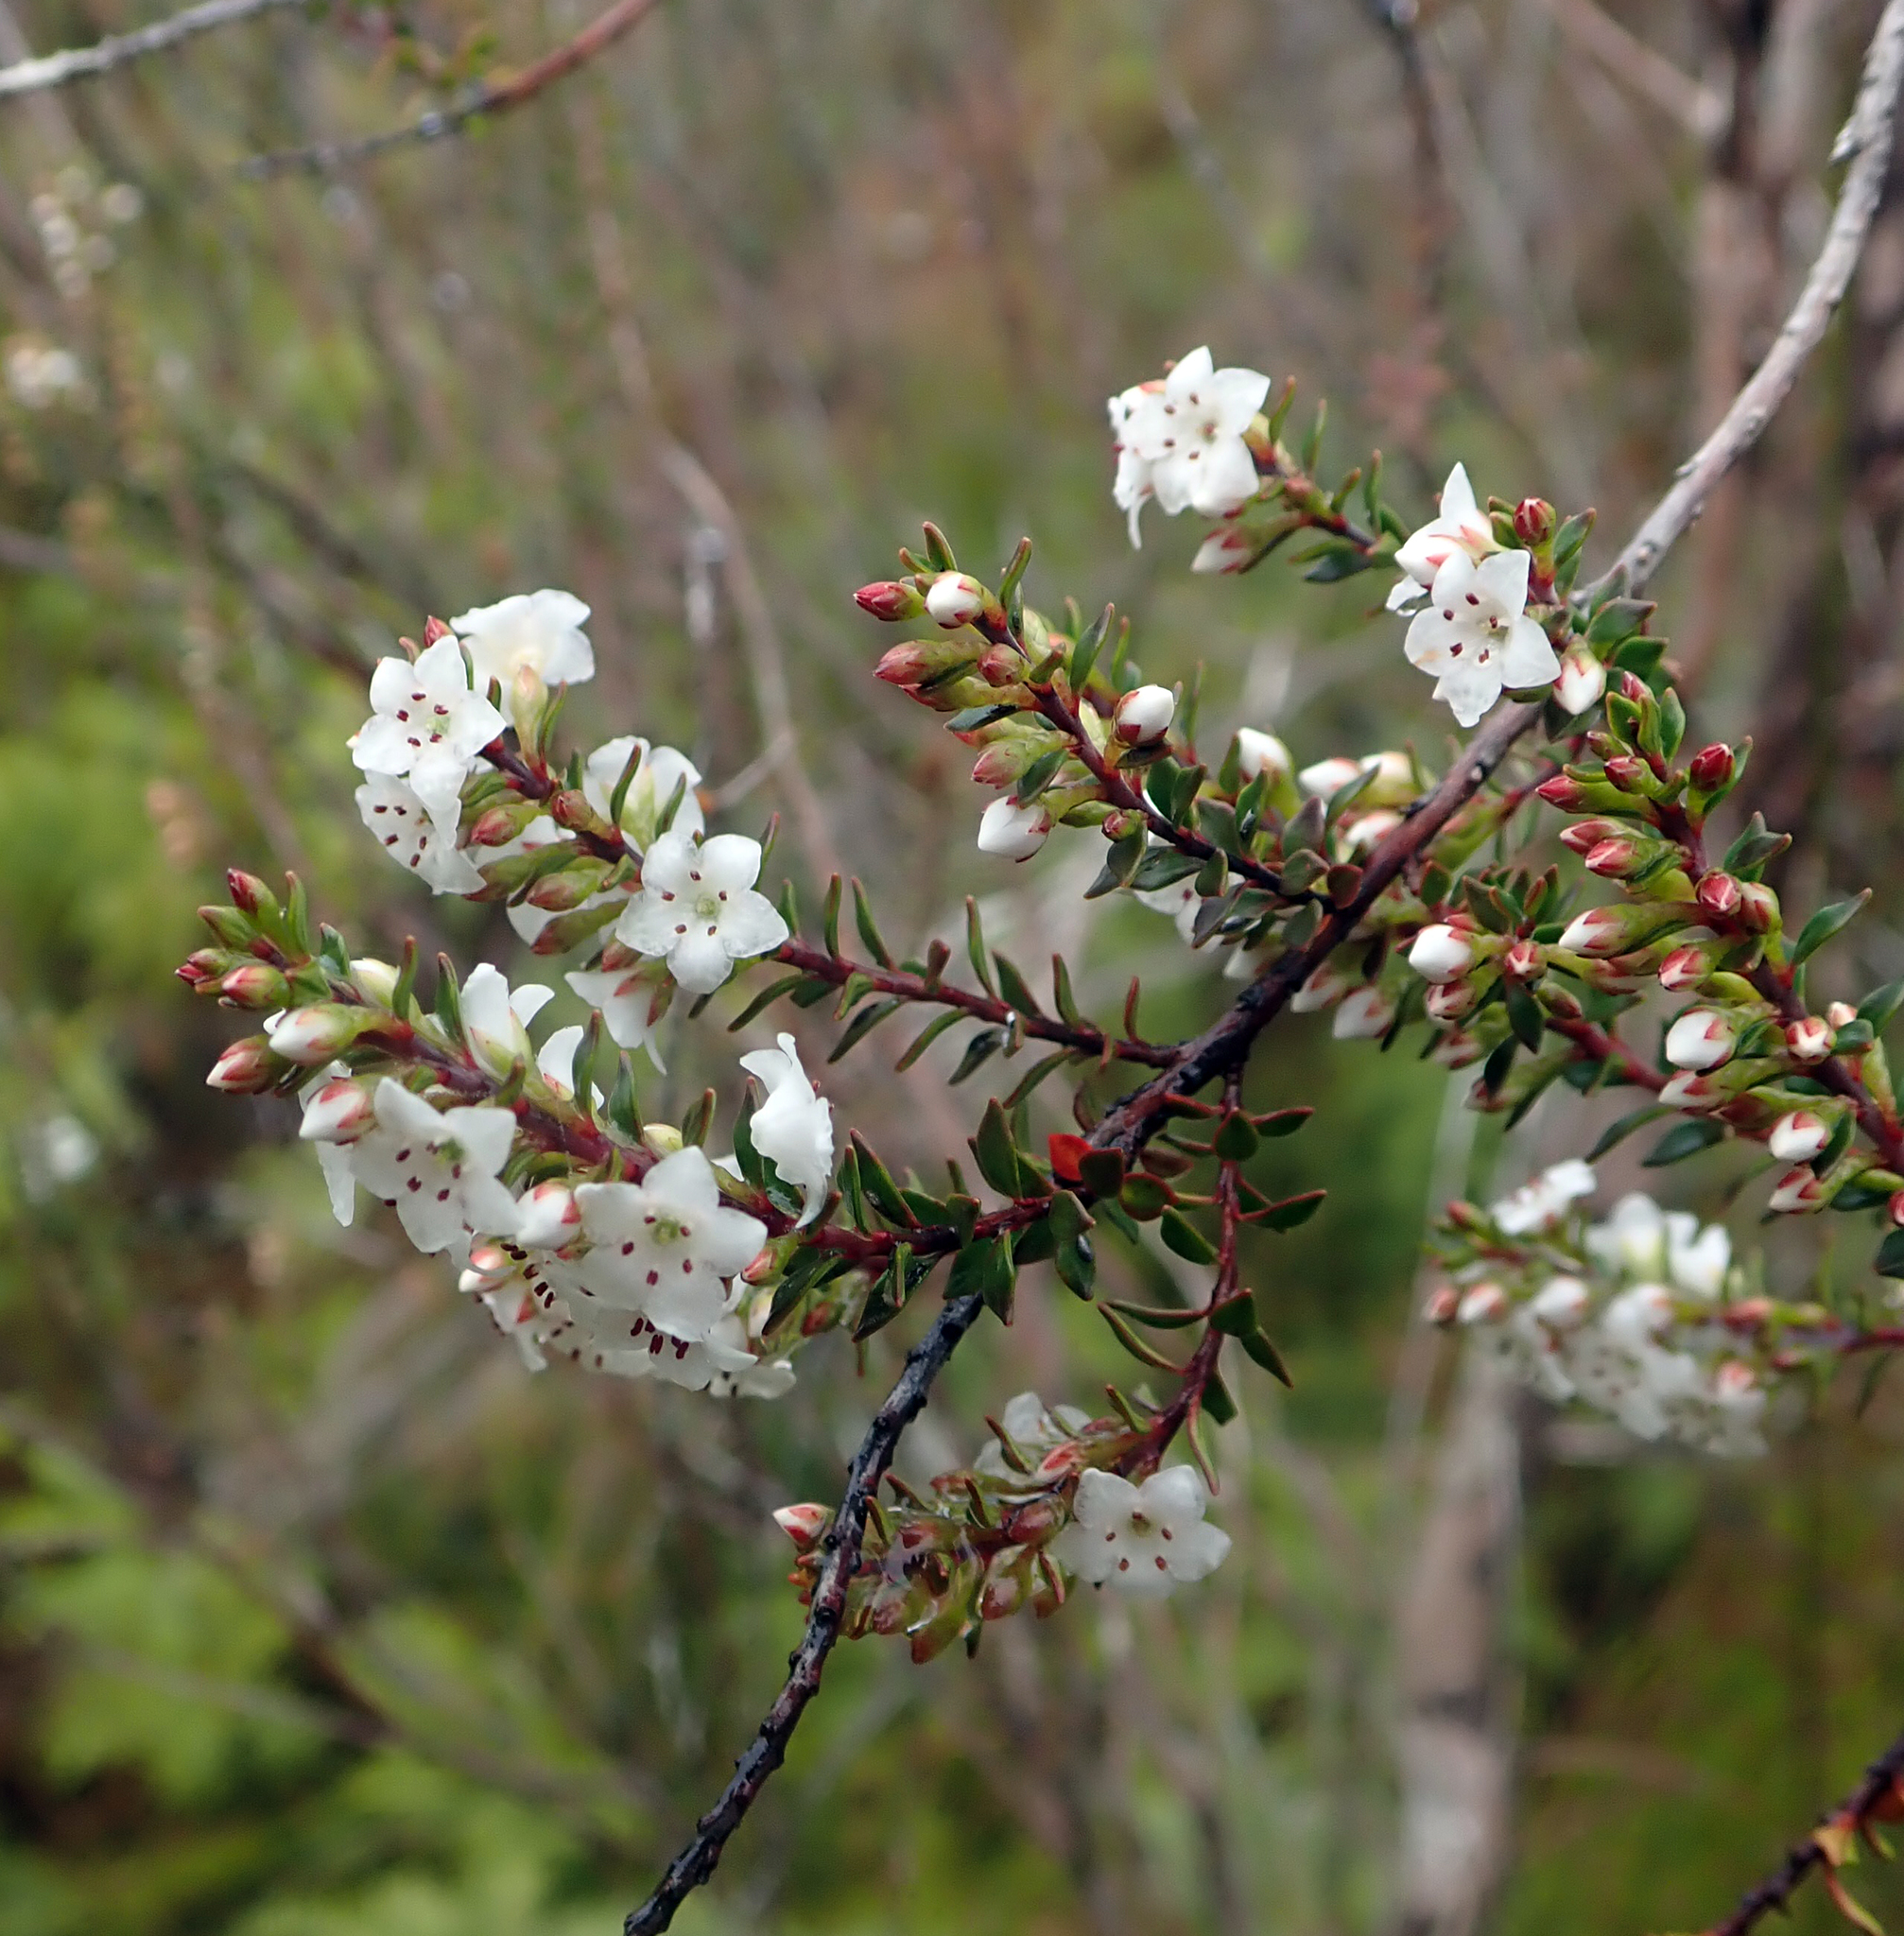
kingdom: Plantae
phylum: Tracheophyta
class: Magnoliopsida
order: Ericales
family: Ericaceae
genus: Epacris
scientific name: Epacris pauciflora
